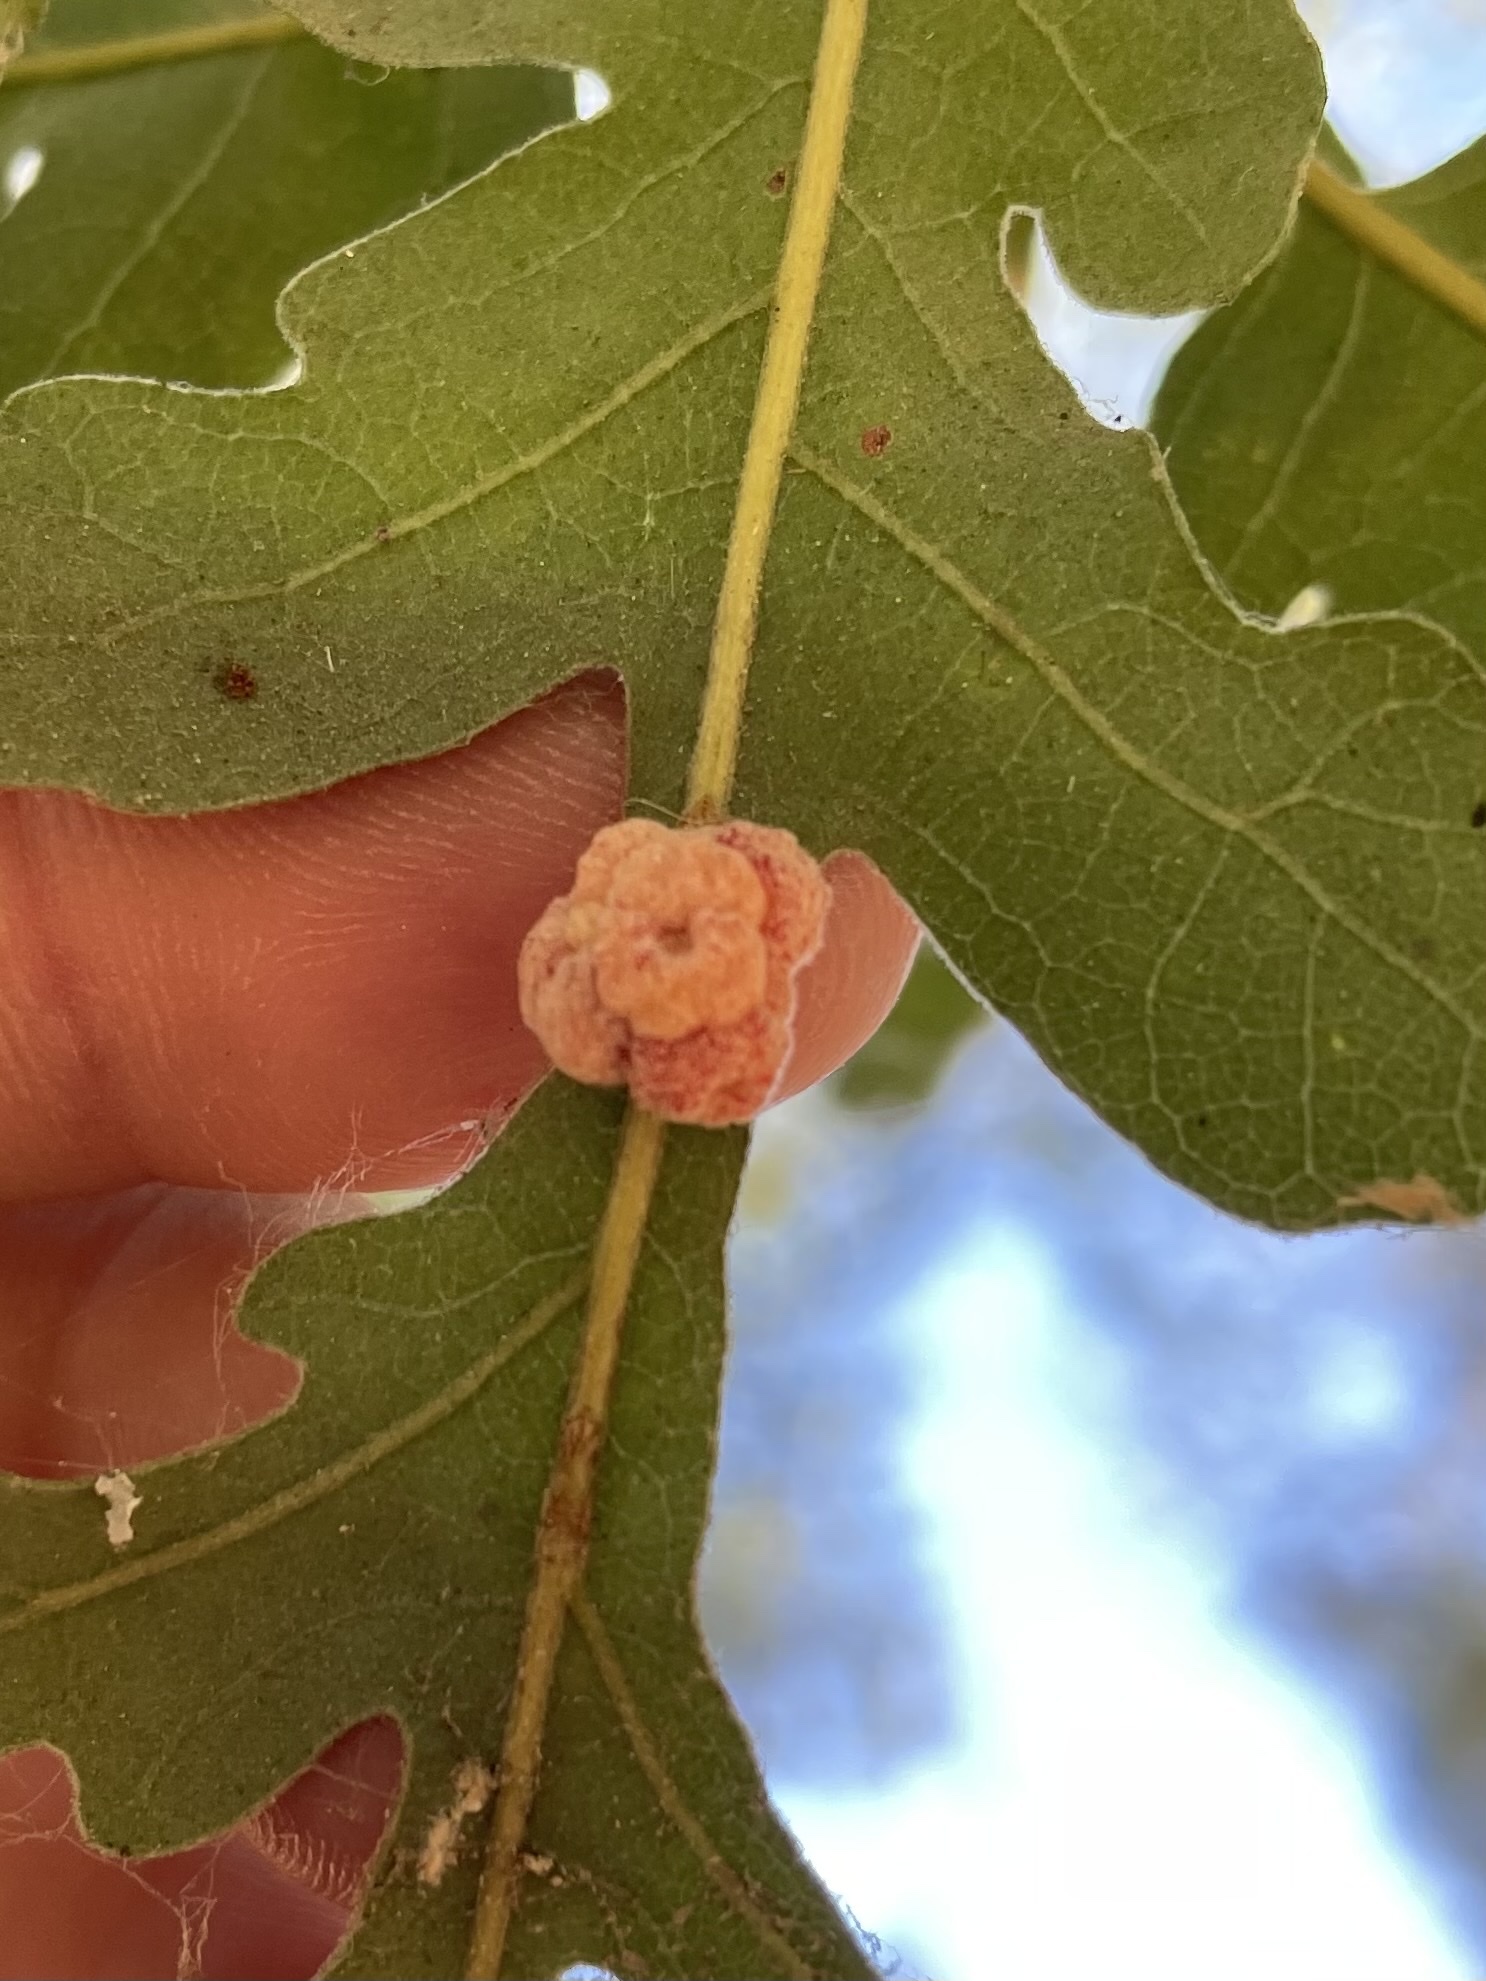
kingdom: Animalia
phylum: Arthropoda
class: Insecta
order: Hymenoptera
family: Cynipidae
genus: Andricus
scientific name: Andricus
